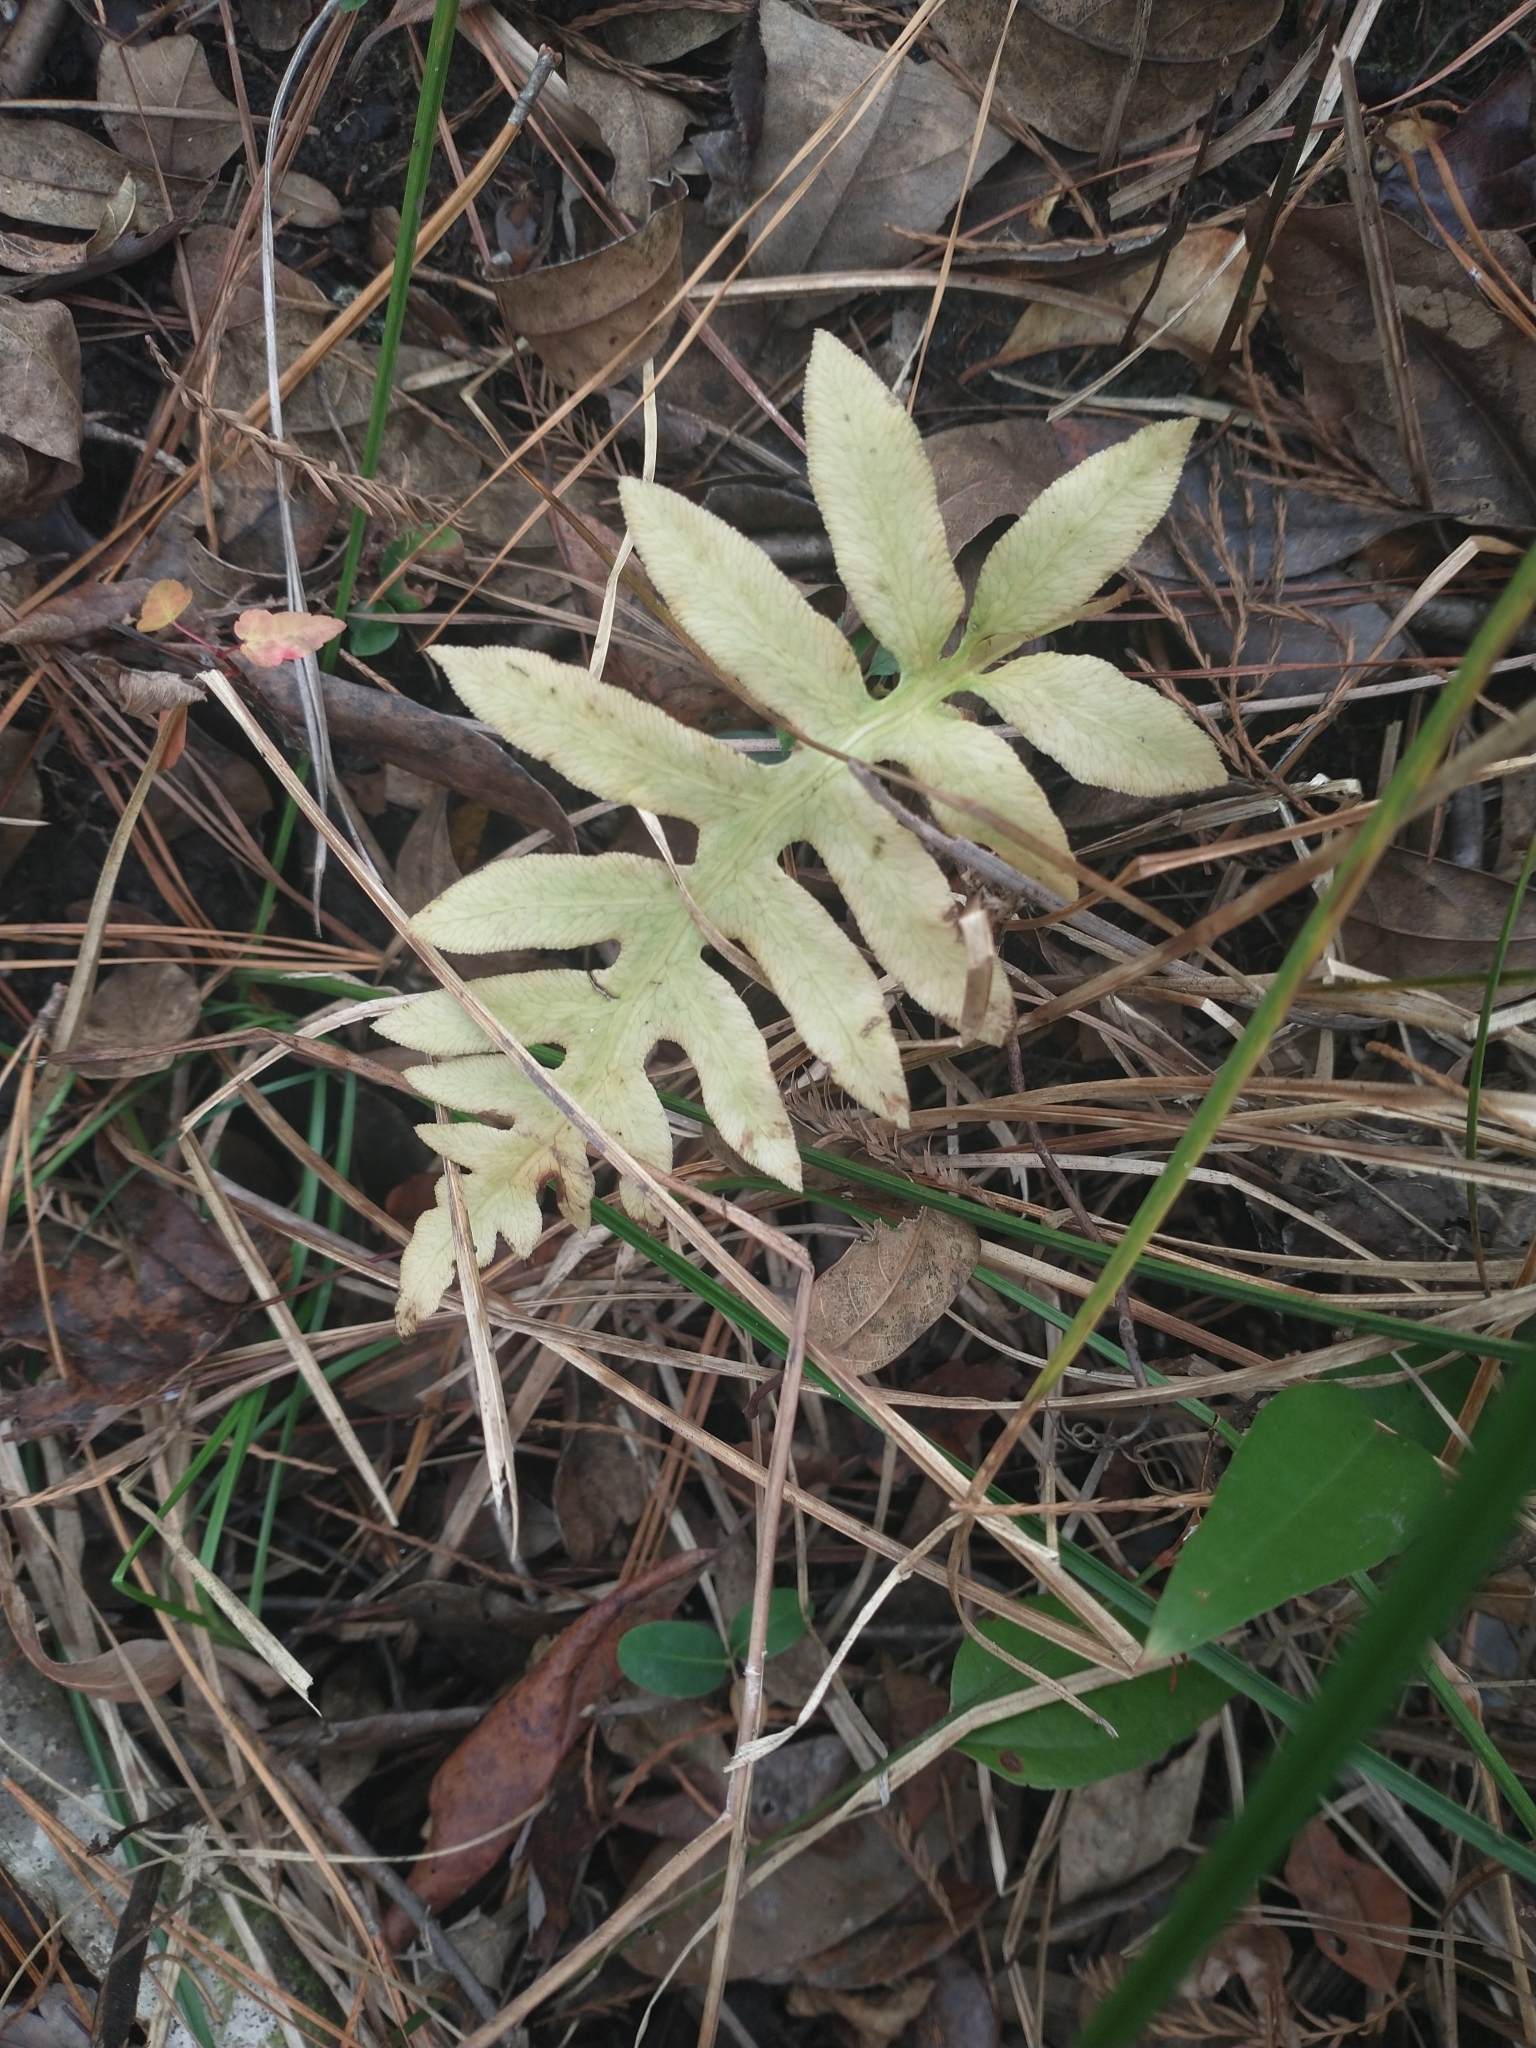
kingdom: Plantae
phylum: Tracheophyta
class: Polypodiopsida
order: Polypodiales
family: Blechnaceae
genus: Lorinseria
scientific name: Lorinseria areolata
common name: Dwarf chain fern
